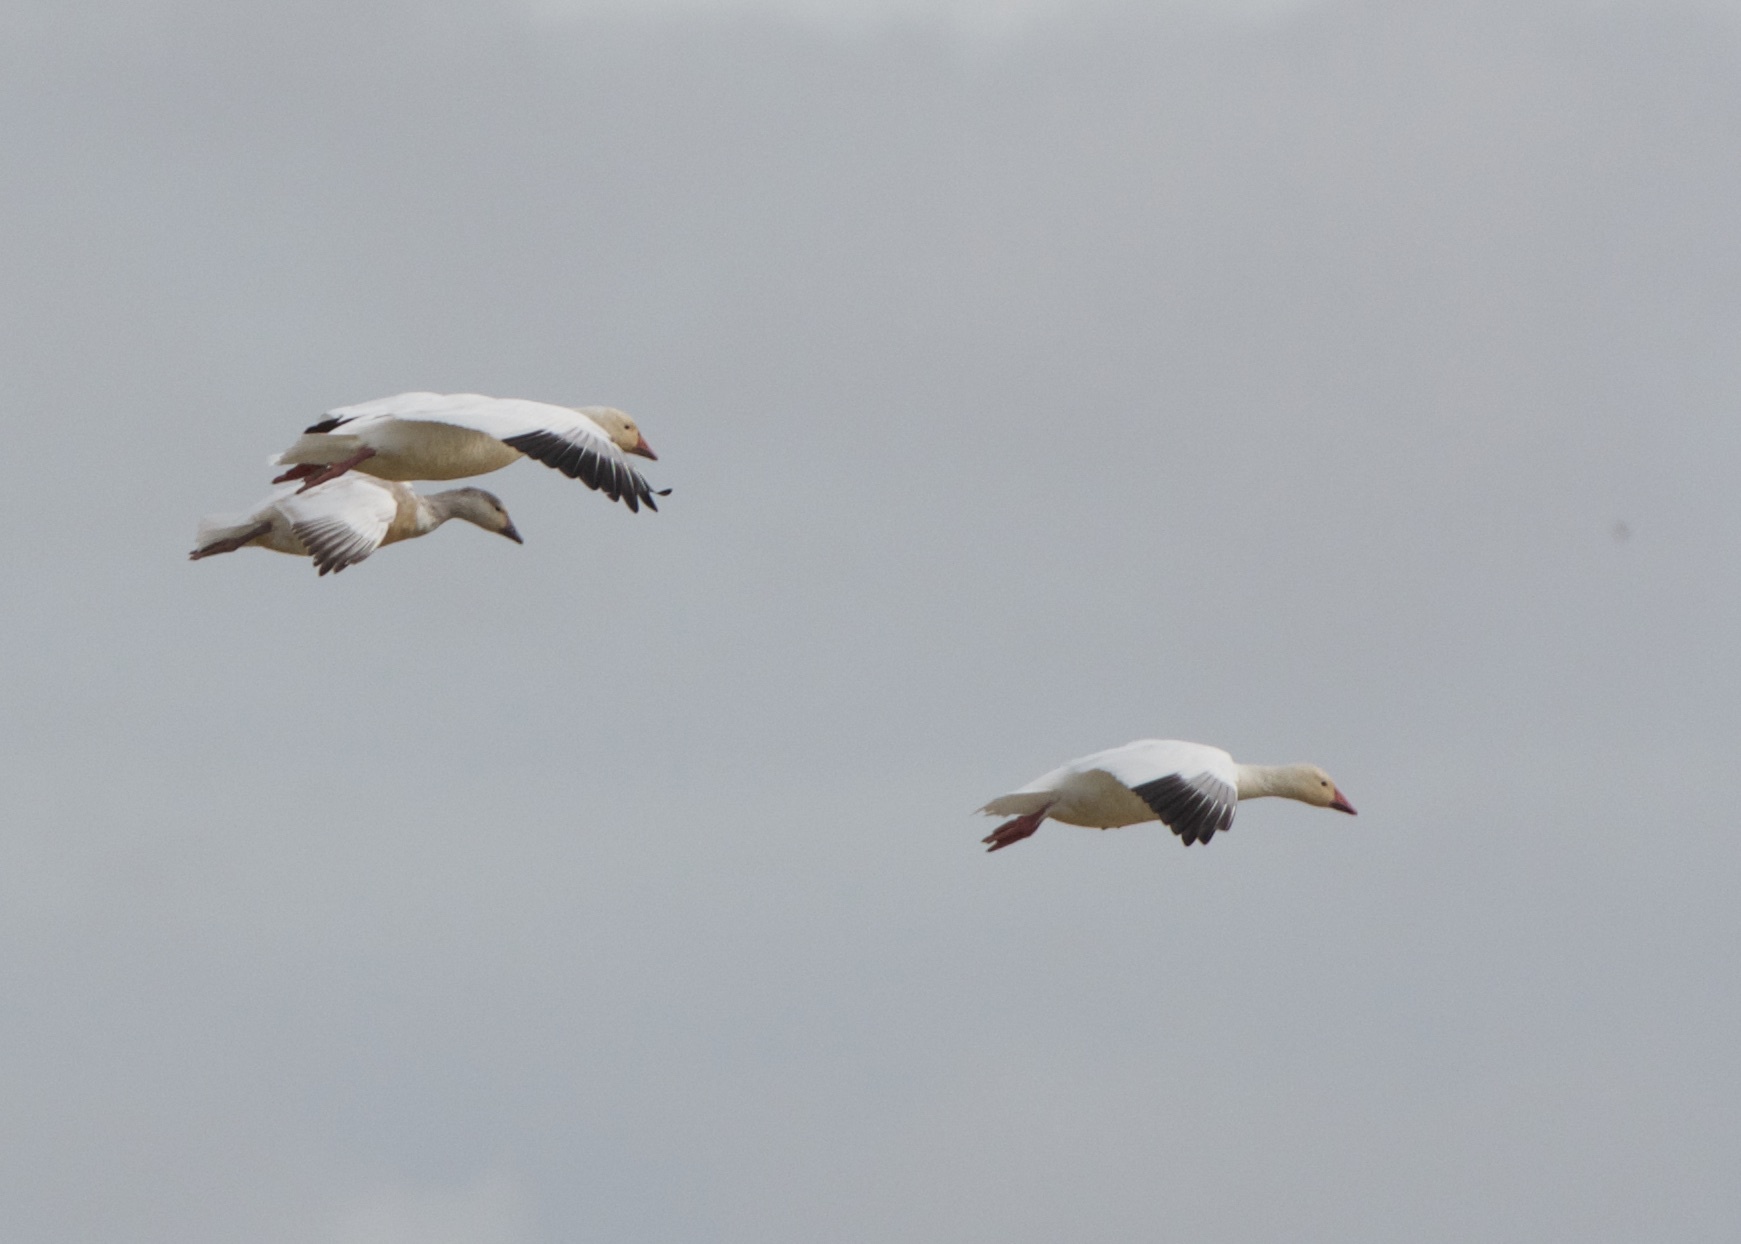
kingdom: Animalia
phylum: Chordata
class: Aves
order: Anseriformes
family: Anatidae
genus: Anser
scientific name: Anser caerulescens
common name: Snow goose
